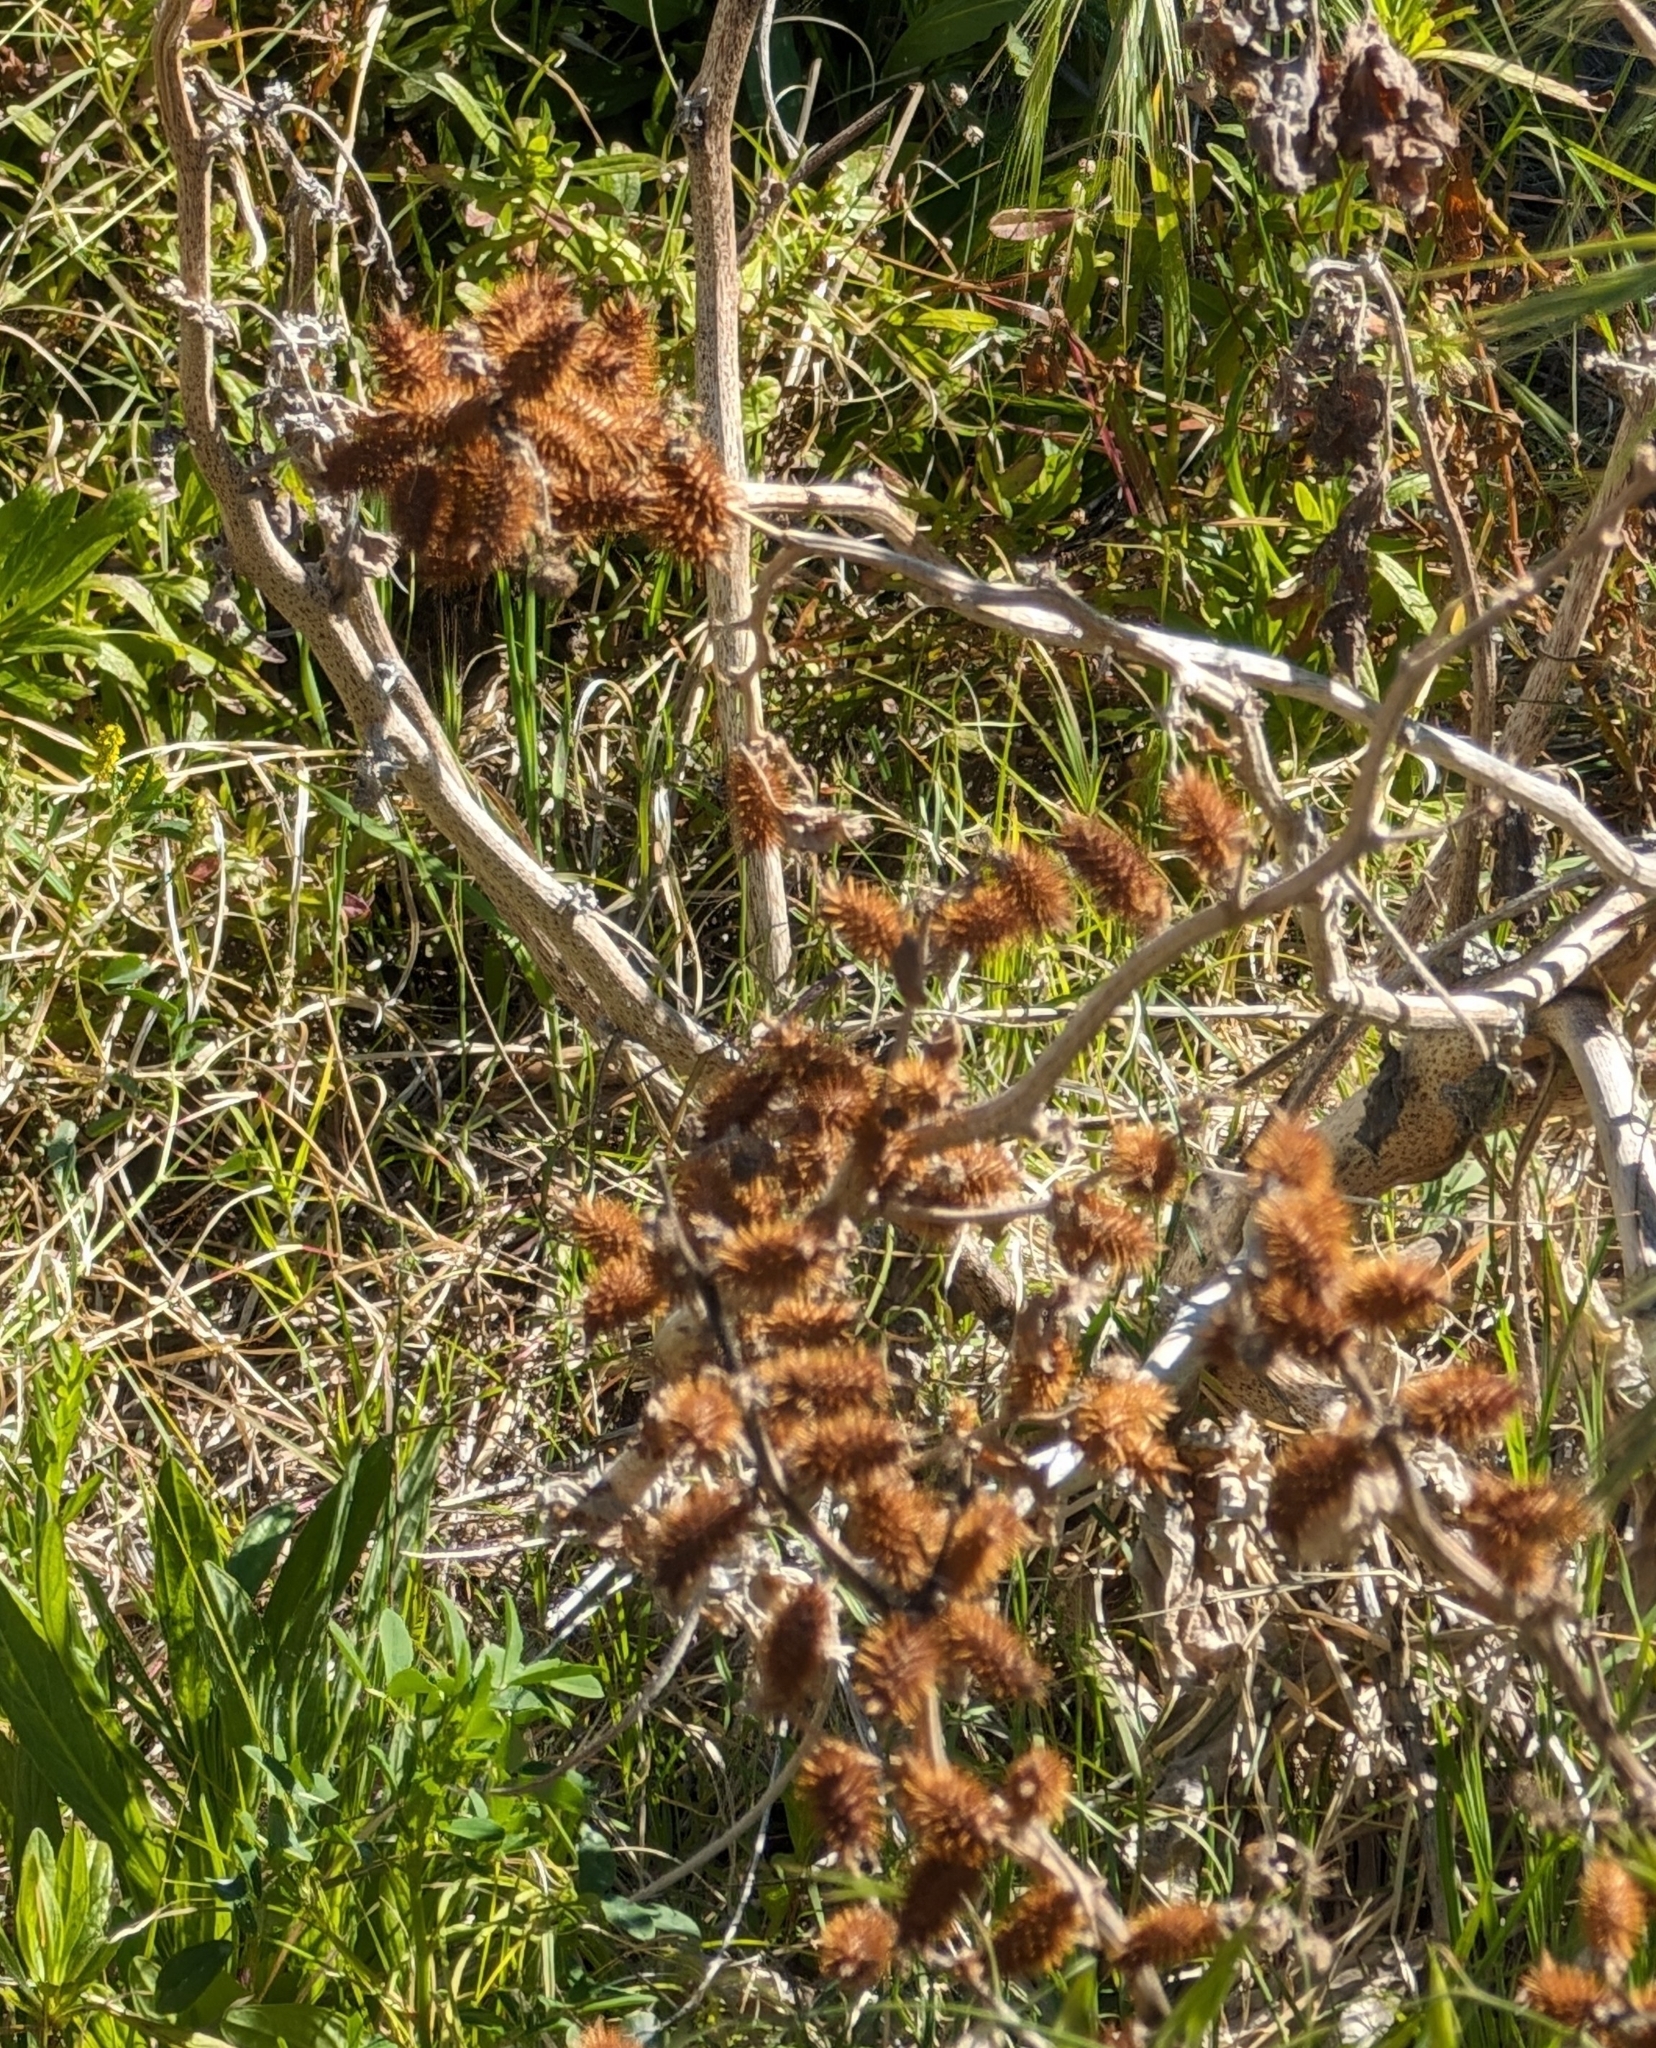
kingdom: Plantae
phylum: Tracheophyta
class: Magnoliopsida
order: Asterales
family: Asteraceae
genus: Xanthium
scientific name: Xanthium strumarium
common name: Rough cocklebur
